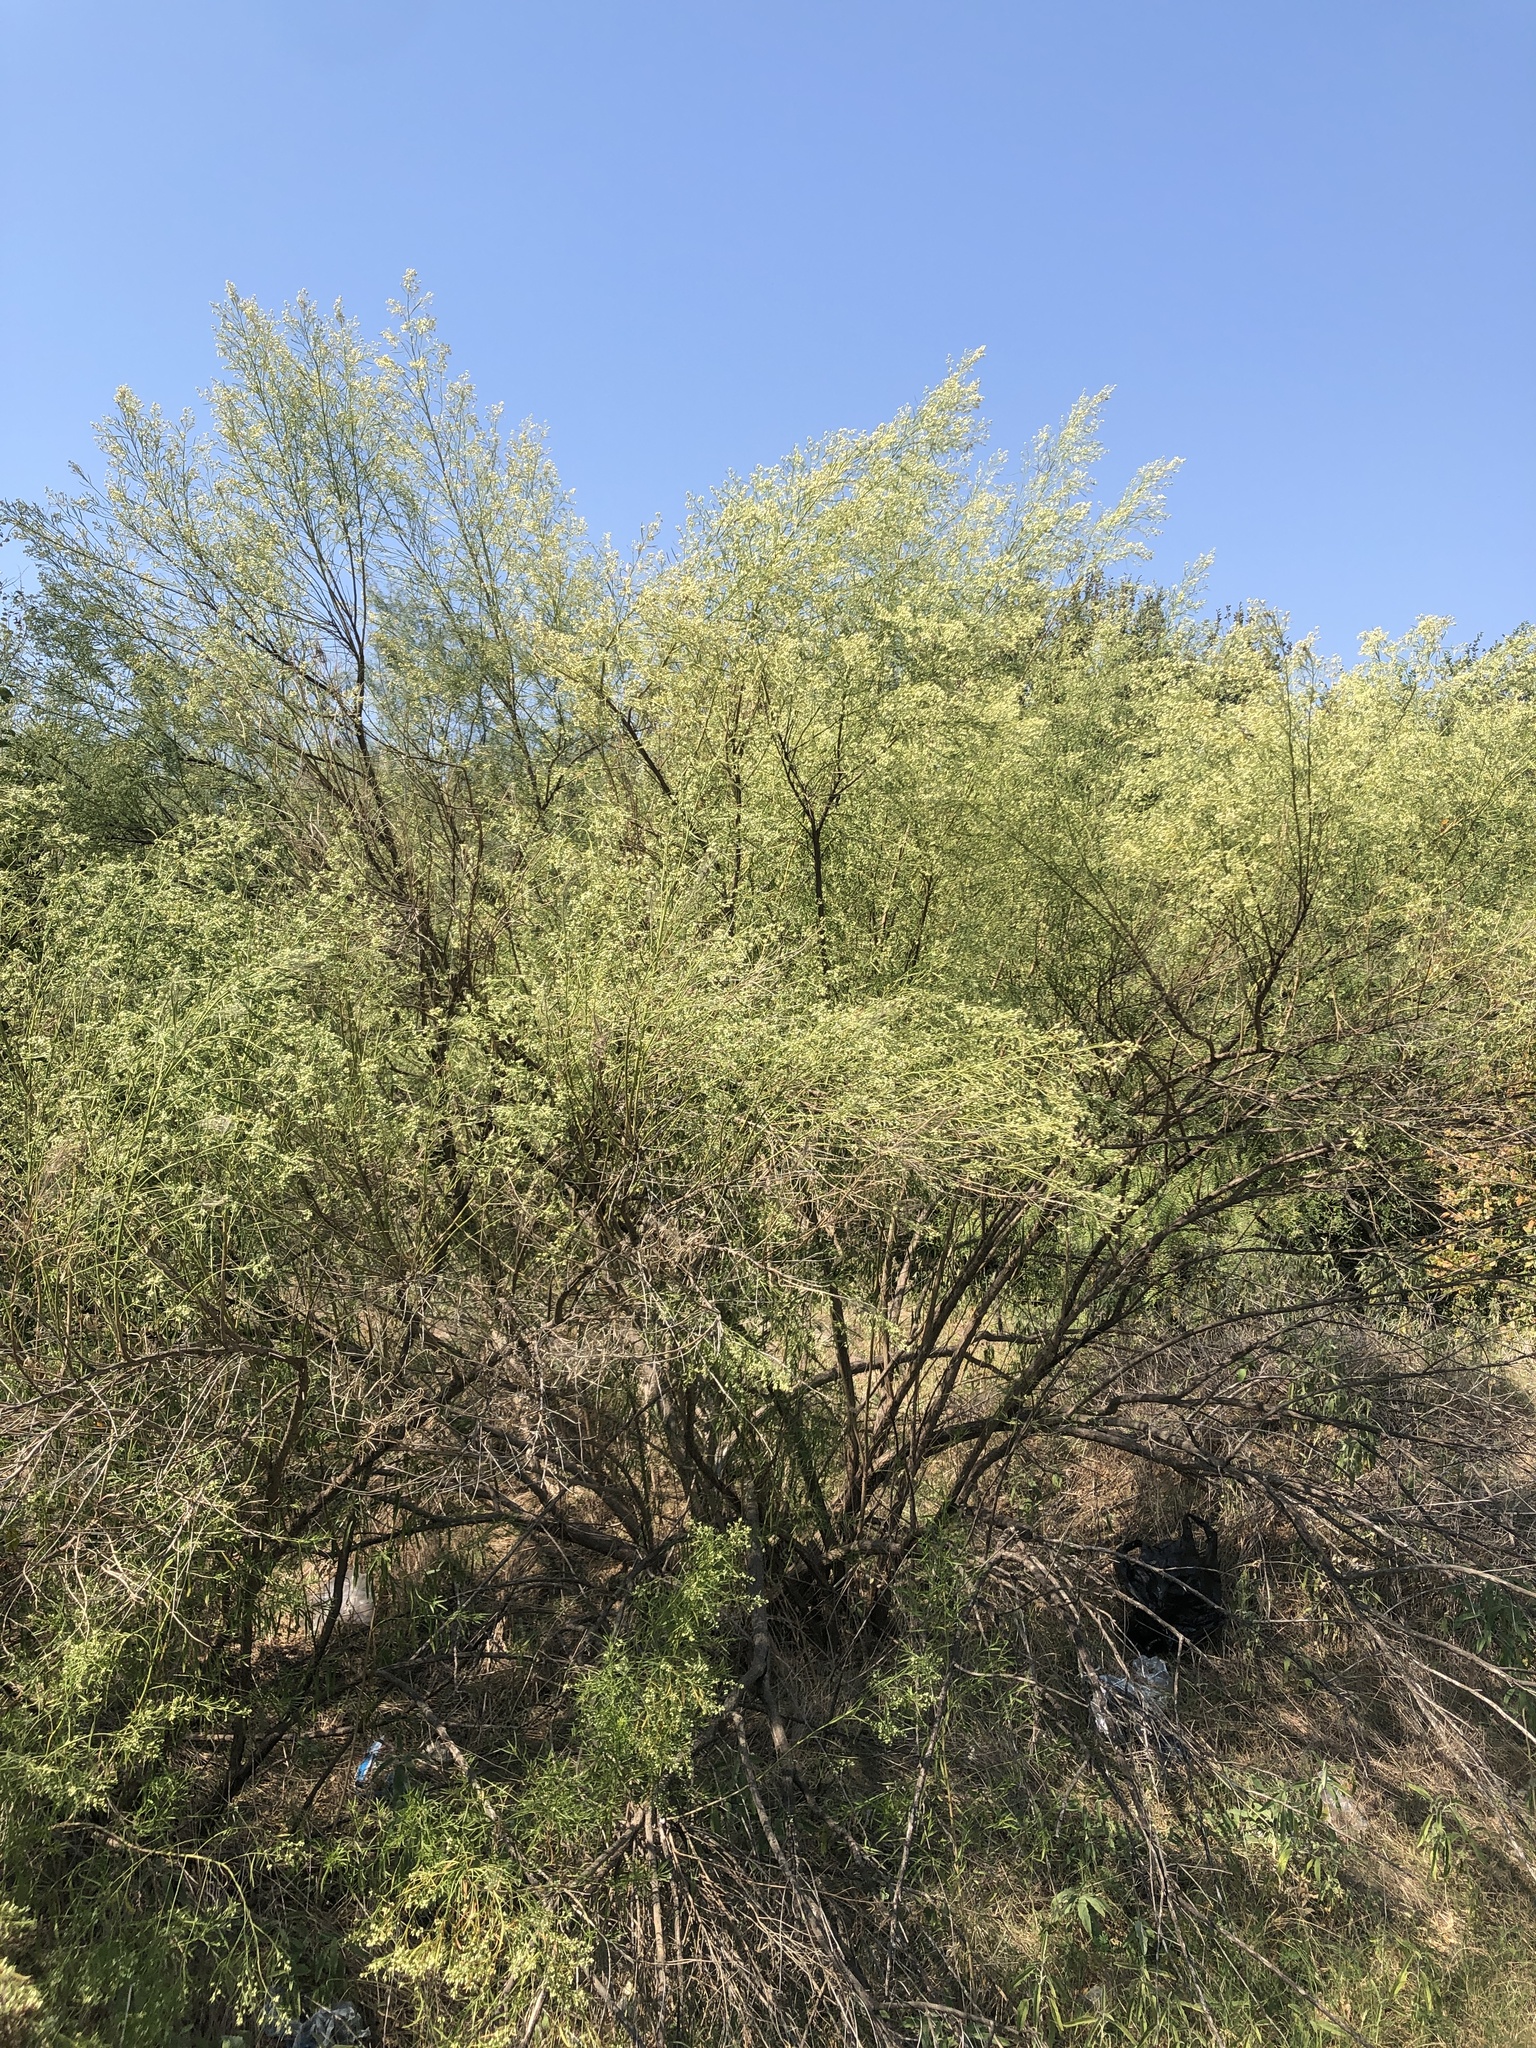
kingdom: Plantae
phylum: Tracheophyta
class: Magnoliopsida
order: Asterales
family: Asteraceae
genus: Baccharis
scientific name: Baccharis neglecta
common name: Roosevelt-weed
